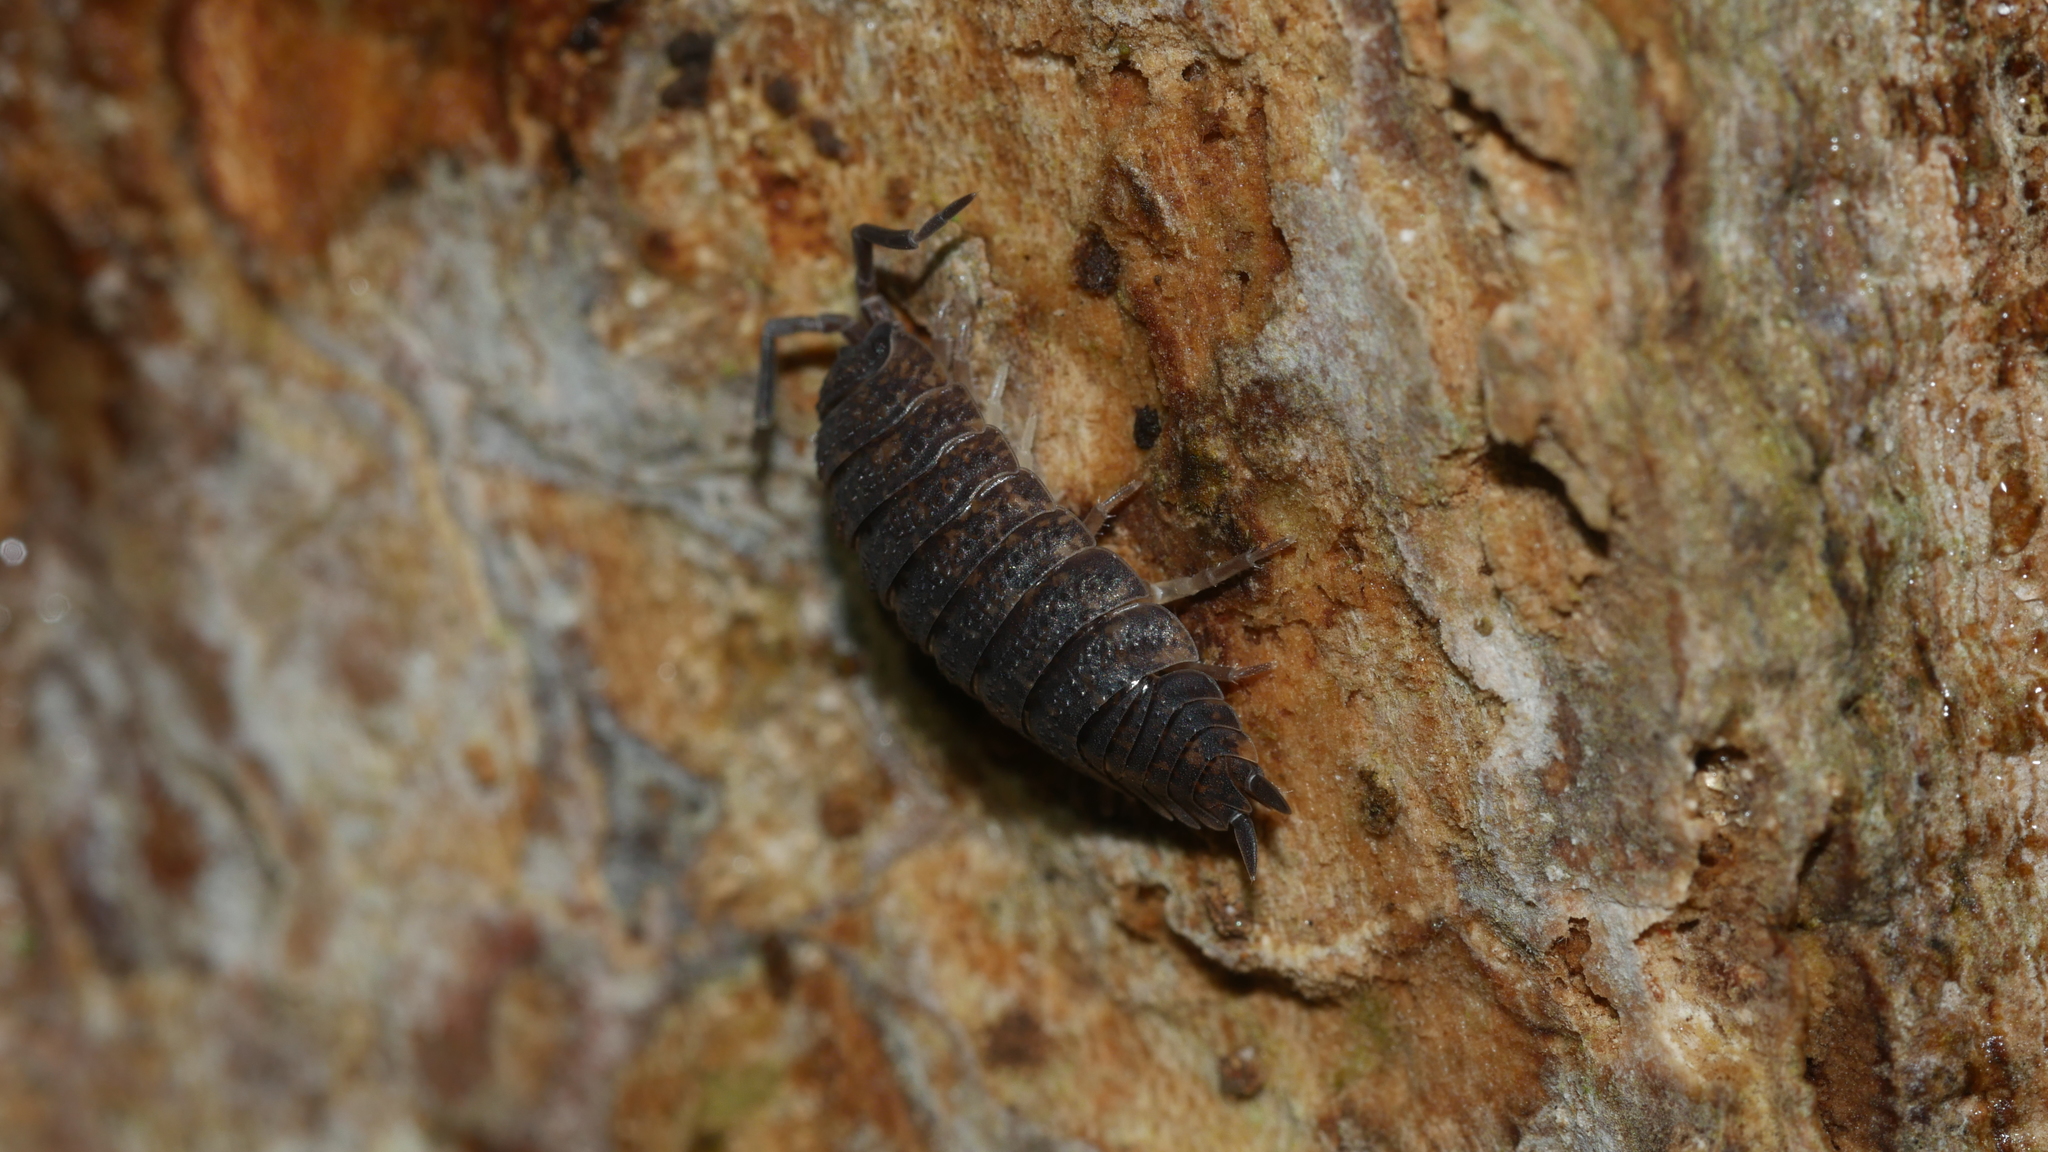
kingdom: Animalia
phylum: Arthropoda
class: Malacostraca
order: Isopoda
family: Porcellionidae
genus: Porcellio
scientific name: Porcellio scaber
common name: Common rough woodlouse
